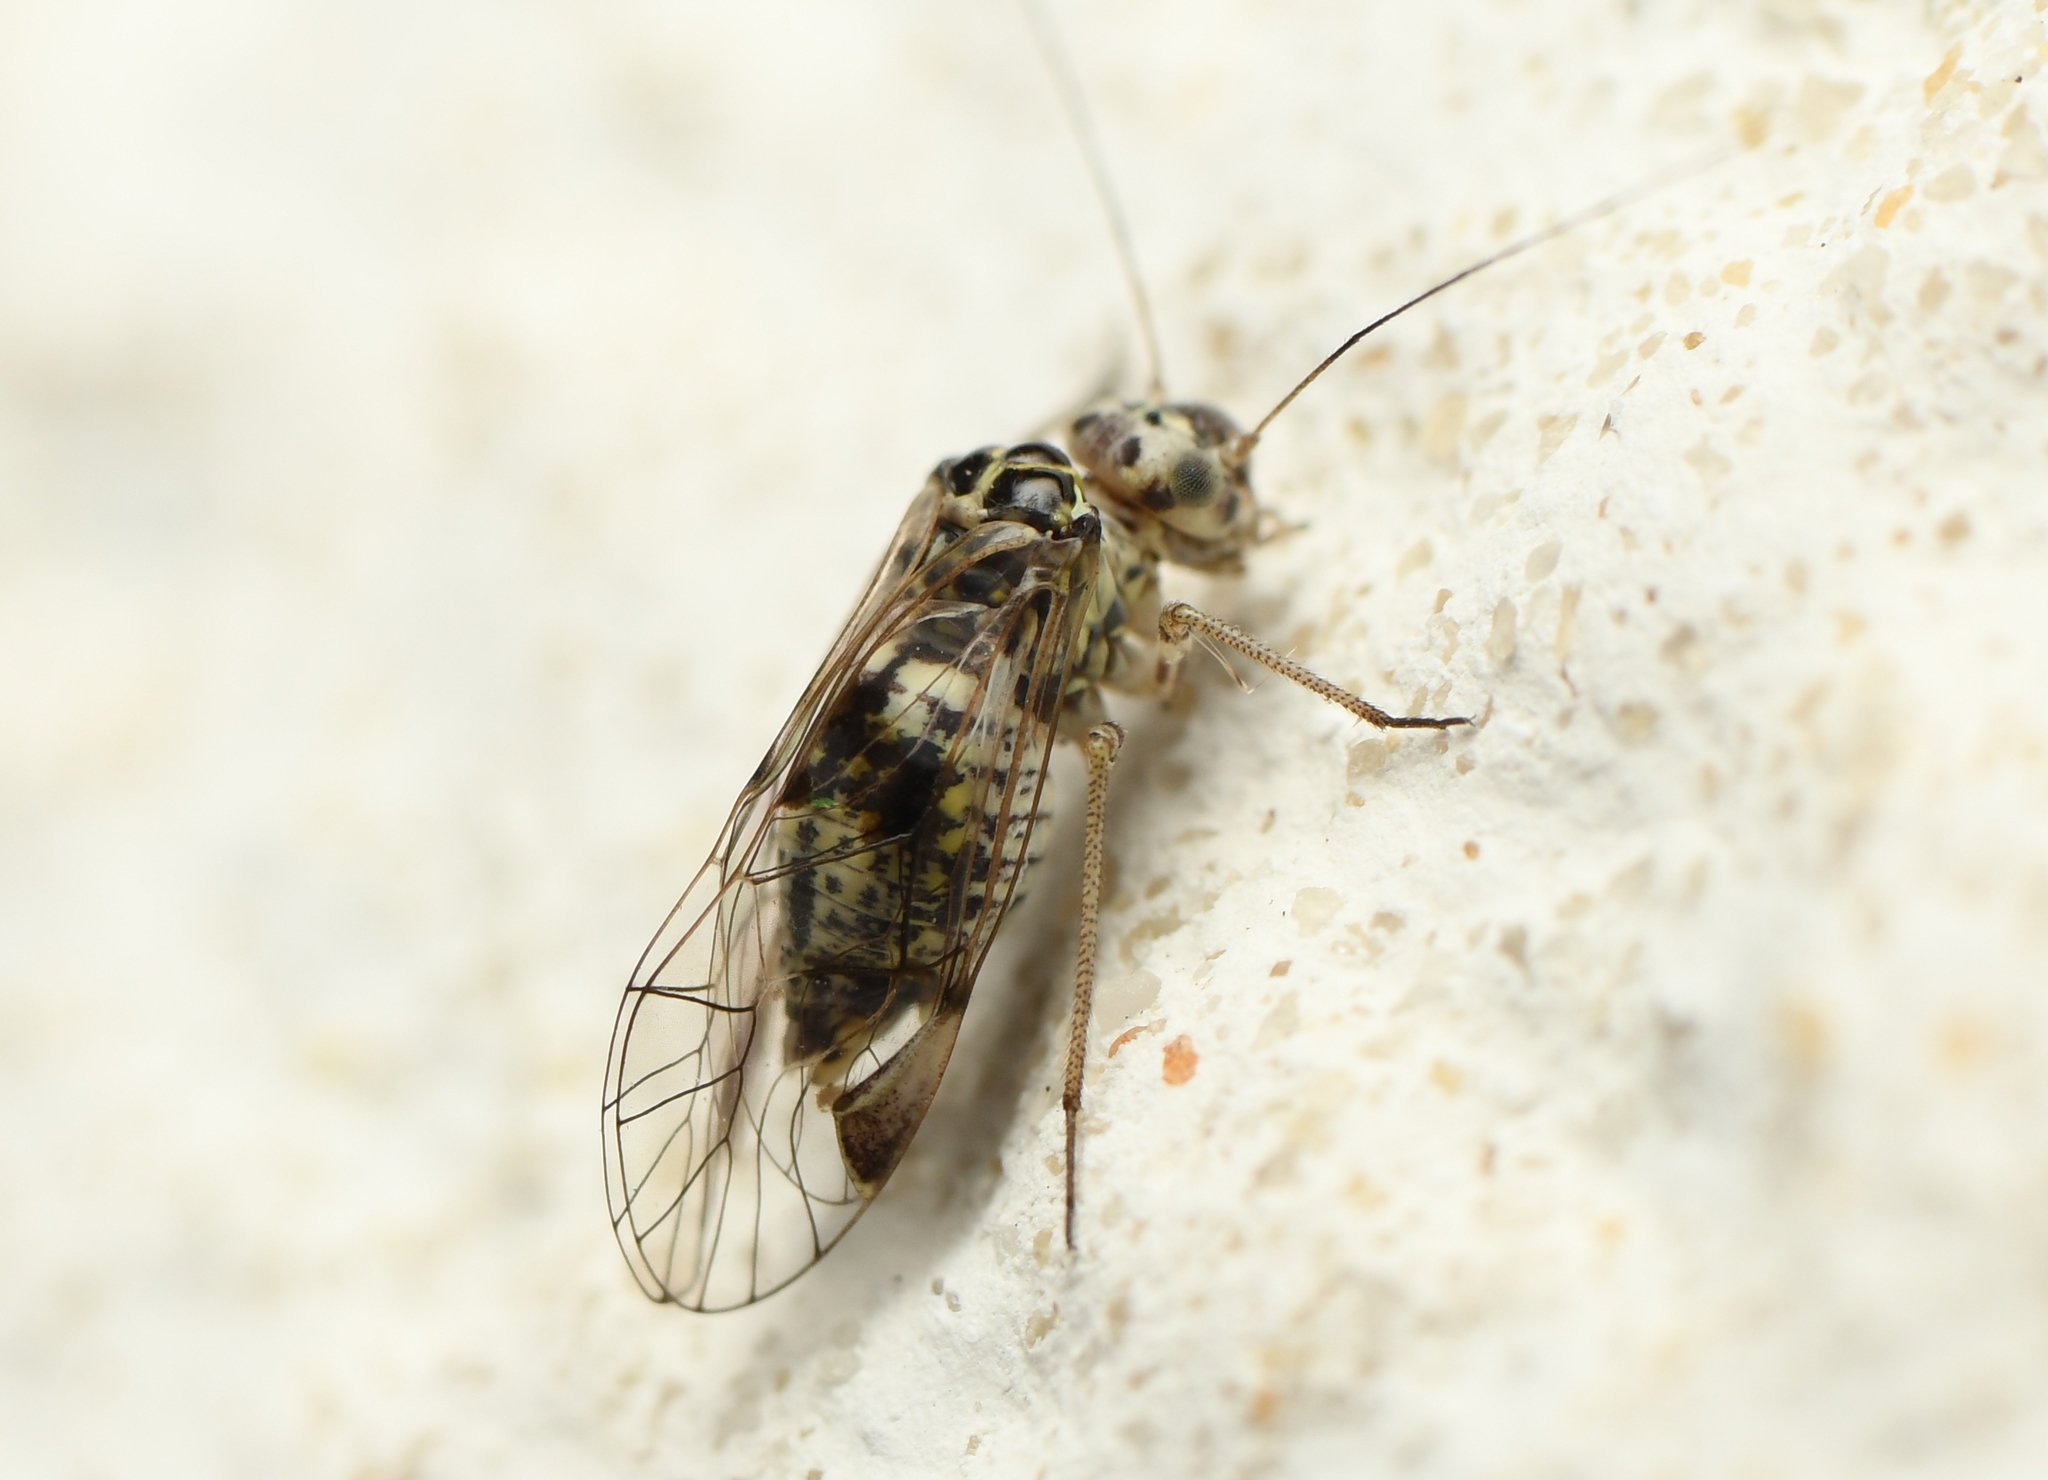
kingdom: Animalia
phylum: Arthropoda
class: Insecta
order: Psocodea
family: Psocidae
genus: Metylophorus
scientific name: Metylophorus novaescotiae
